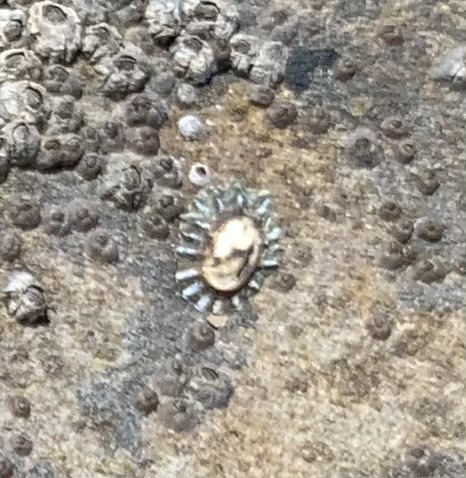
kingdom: Animalia
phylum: Mollusca
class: Gastropoda
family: Lottiidae
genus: Lottia
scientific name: Lottia scabra
